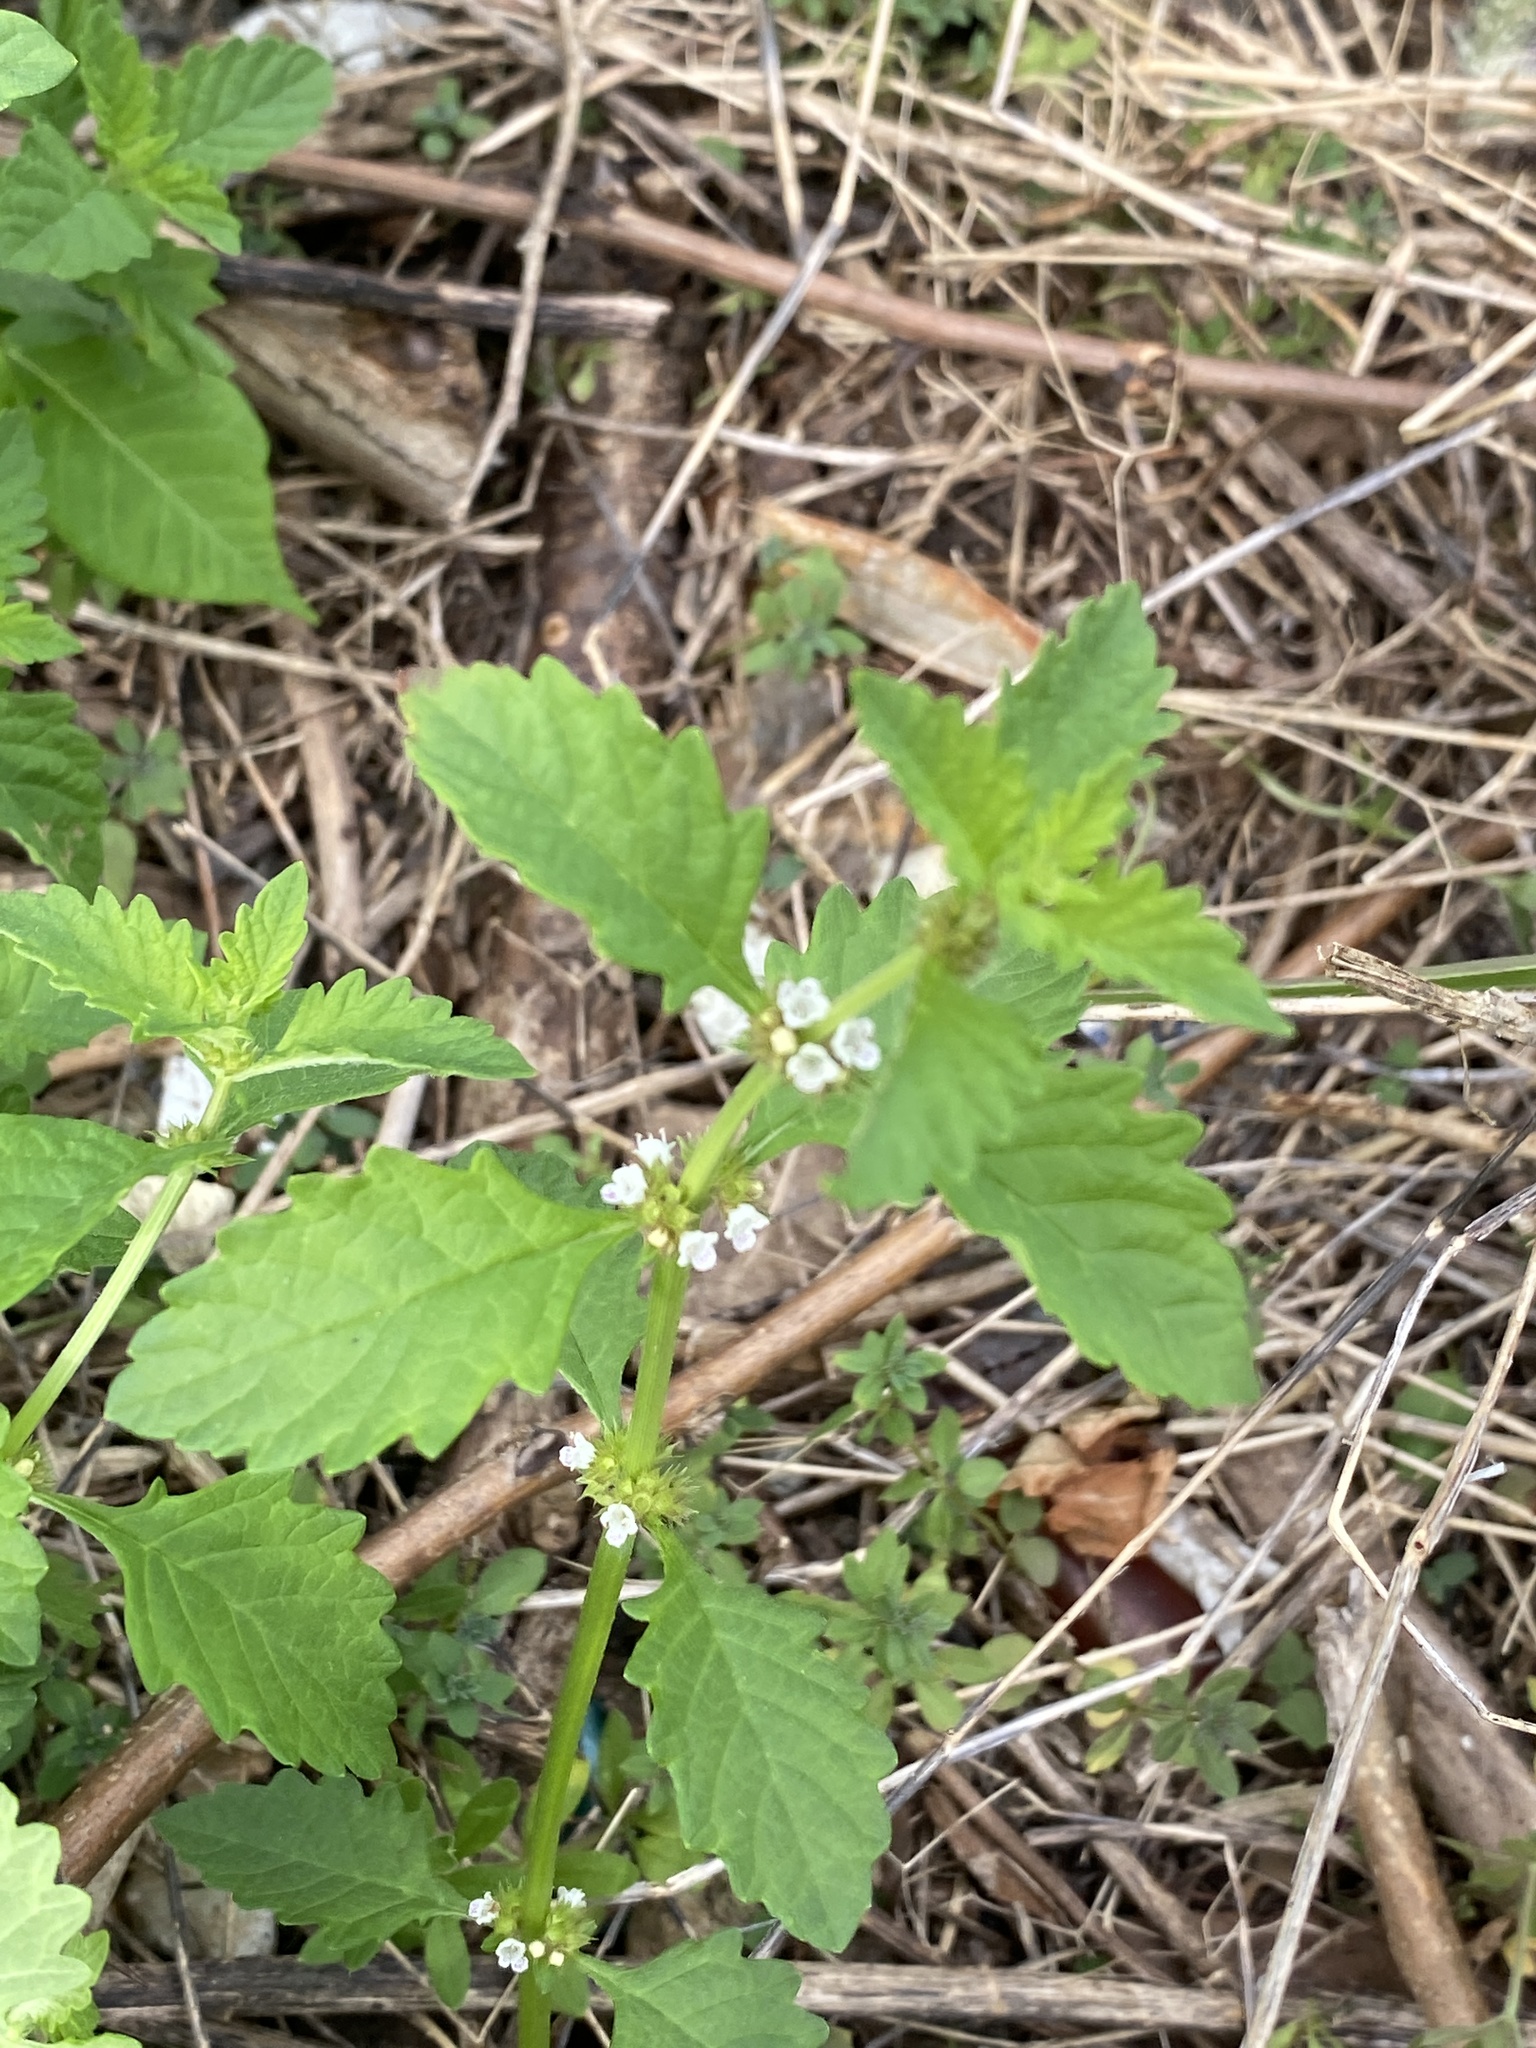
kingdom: Plantae
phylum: Tracheophyta
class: Magnoliopsida
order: Lamiales
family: Lamiaceae
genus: Lycopus
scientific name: Lycopus europaeus
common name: European bugleweed
